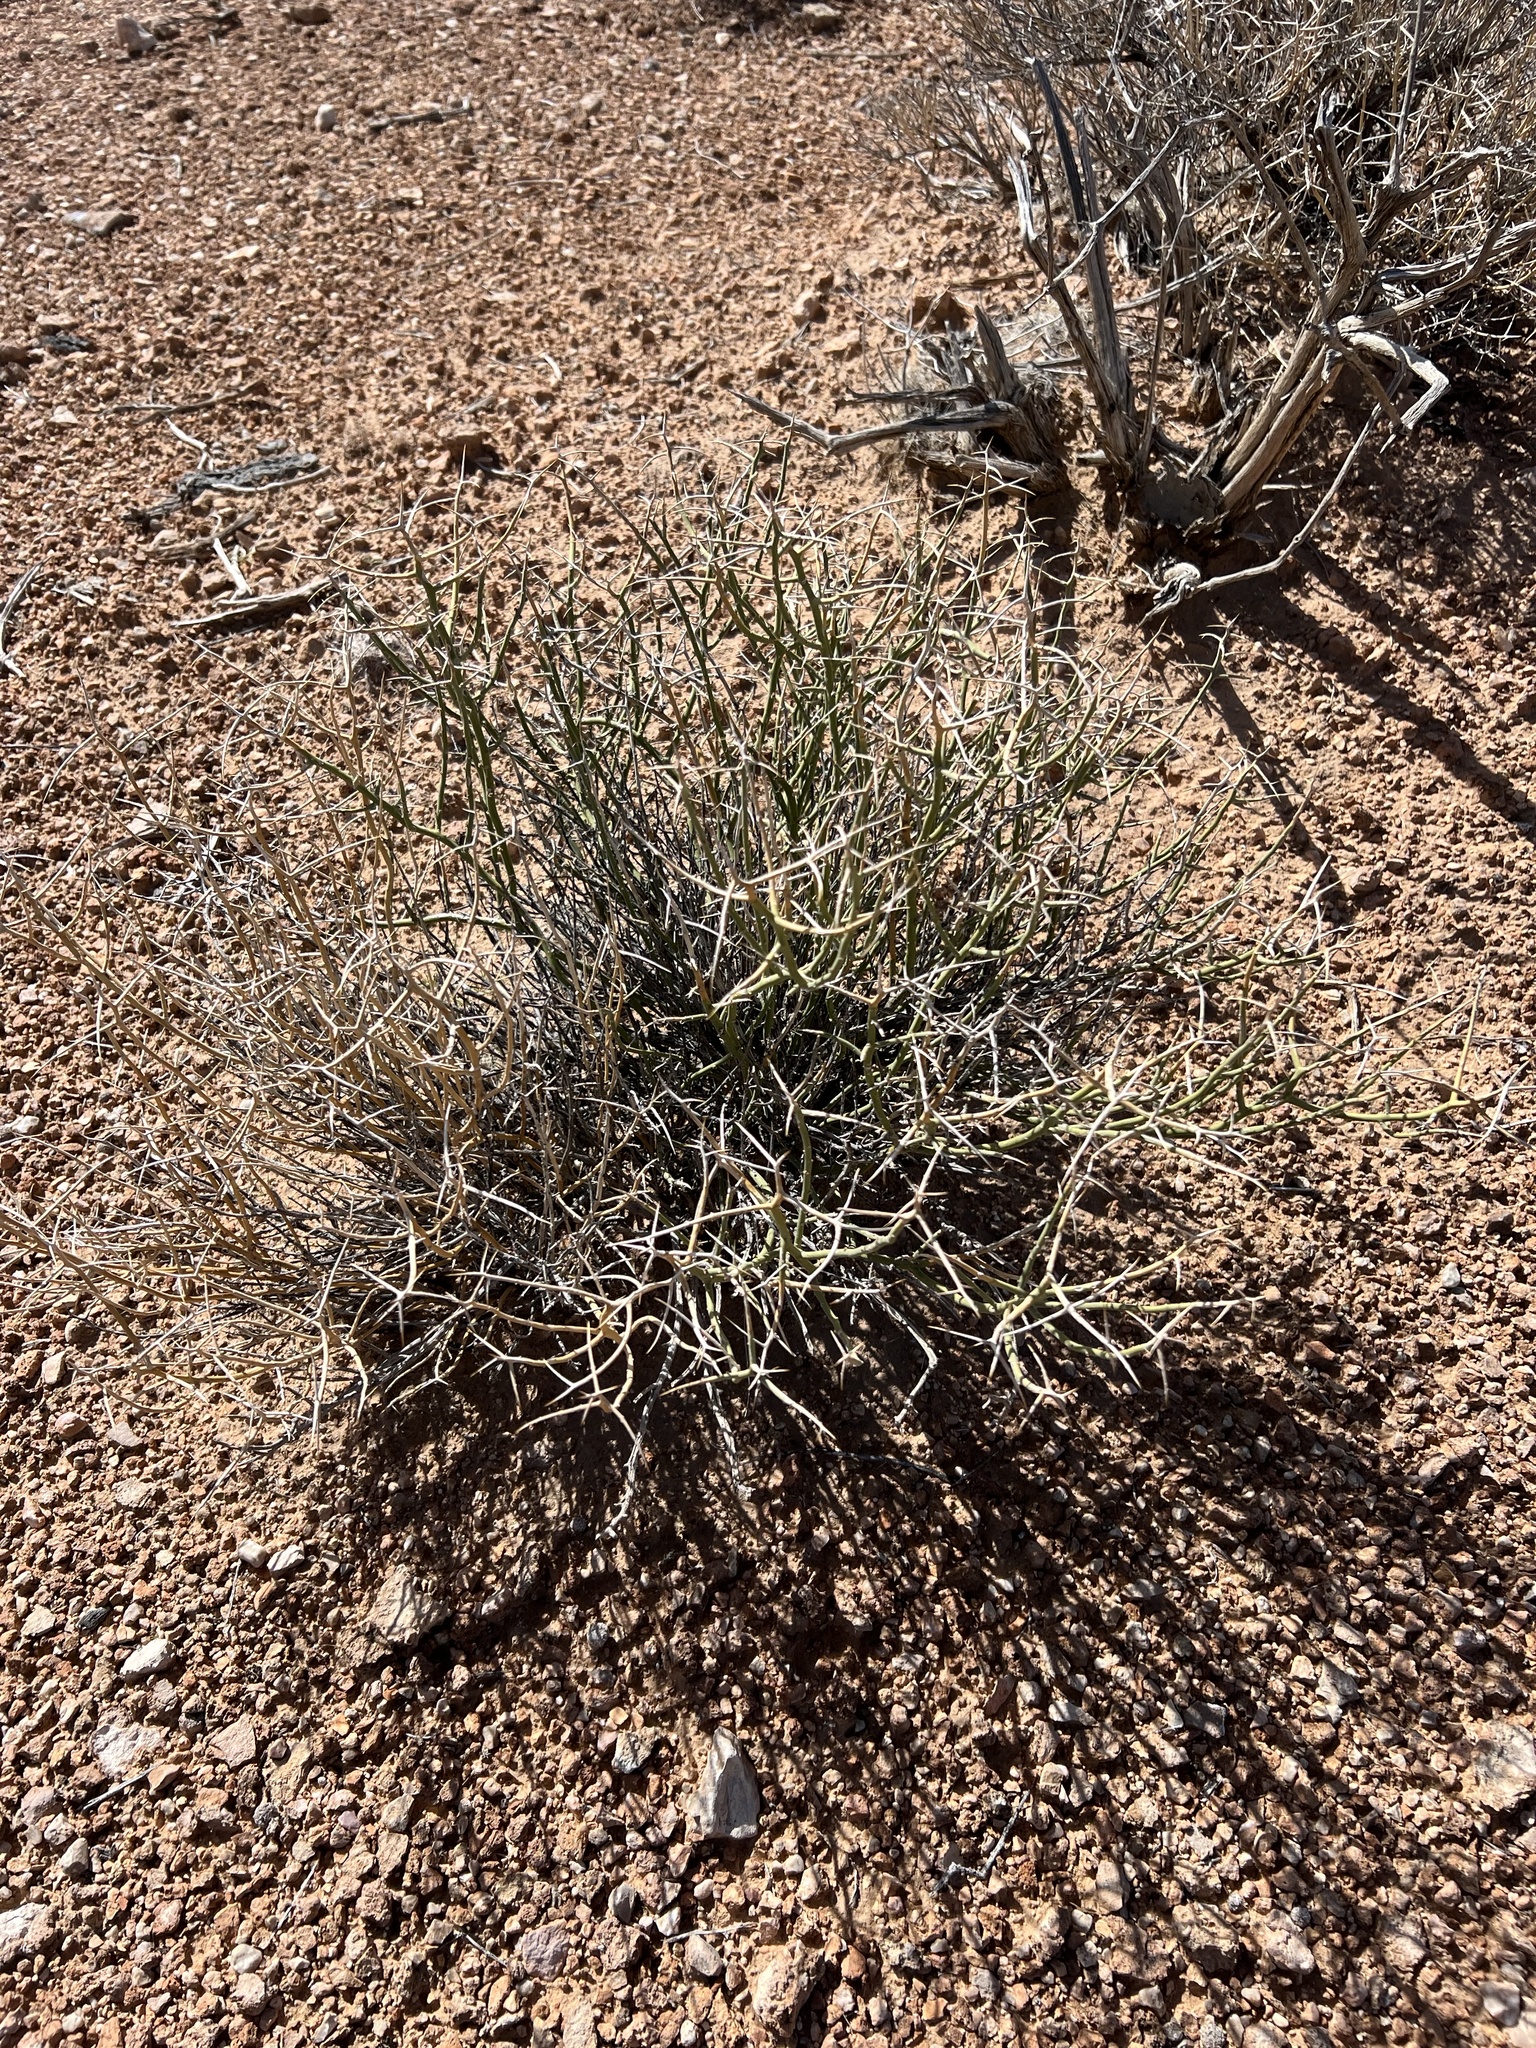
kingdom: Plantae
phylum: Tracheophyta
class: Magnoliopsida
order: Lamiales
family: Oleaceae
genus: Menodora
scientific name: Menodora spinescens
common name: Spiny menodora
